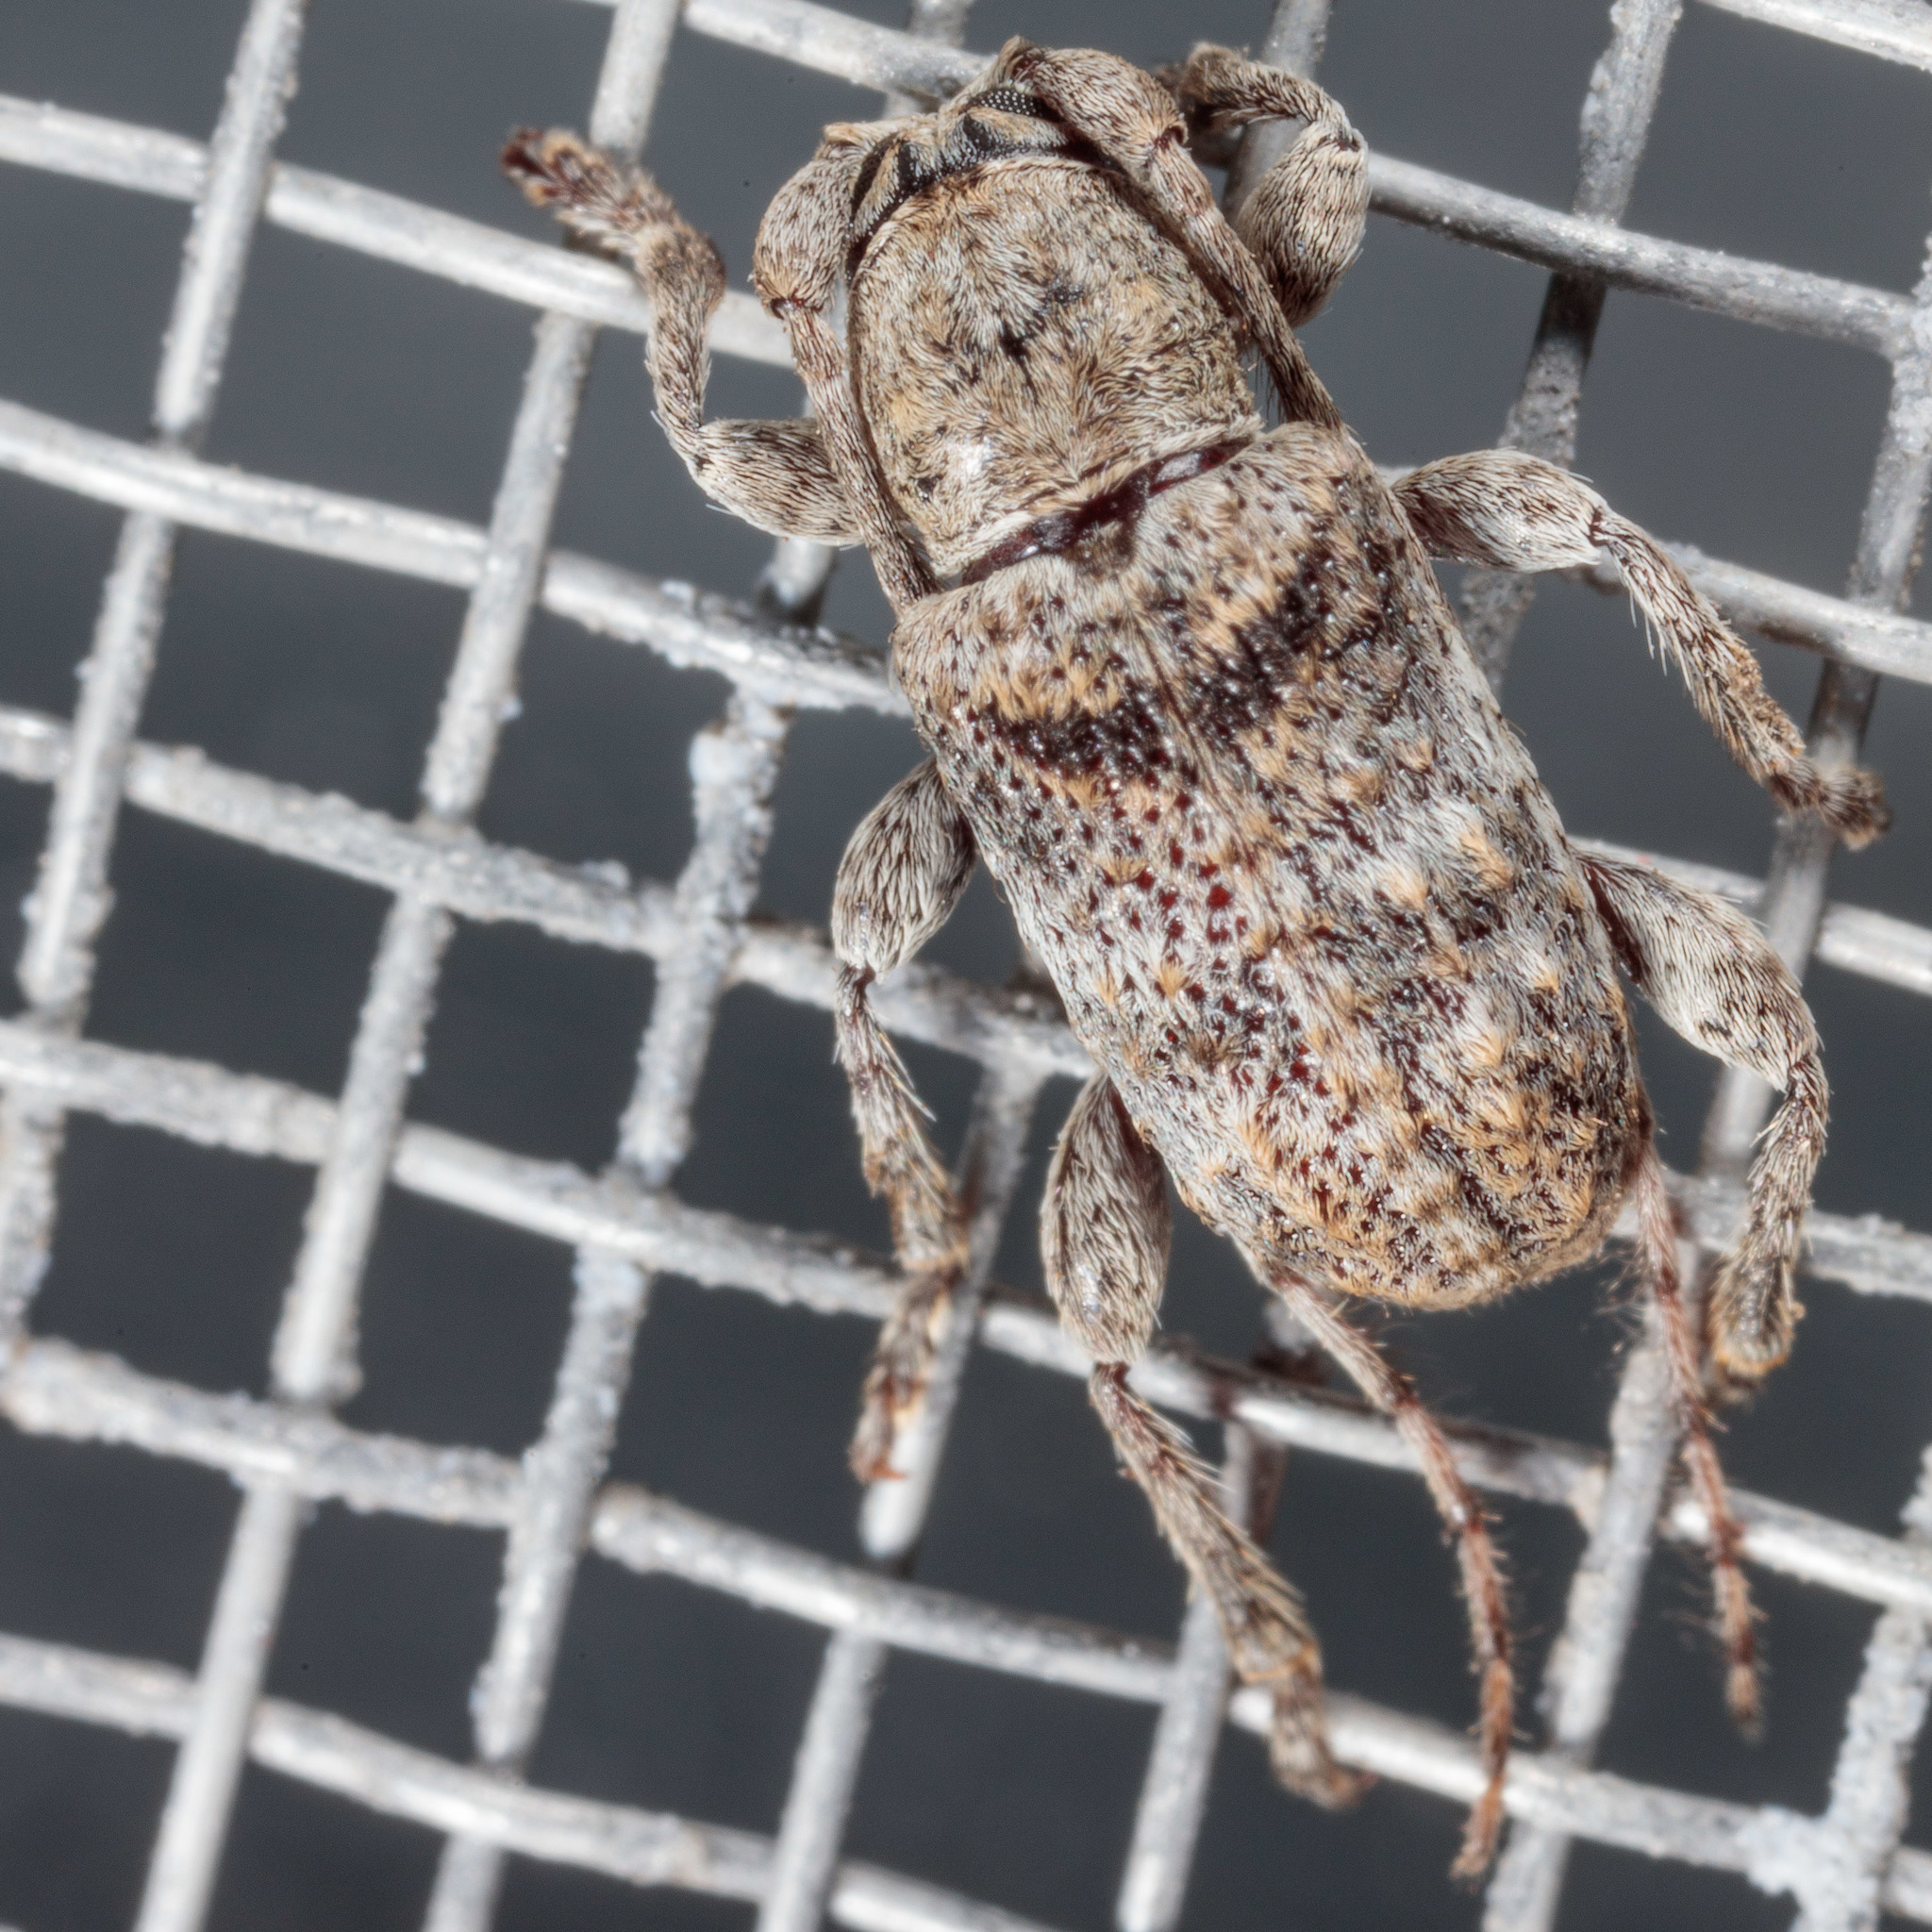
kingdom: Animalia
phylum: Arthropoda
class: Insecta
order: Coleoptera
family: Cerambycidae
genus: Ecyrus
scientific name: Ecyrus dasycerus
